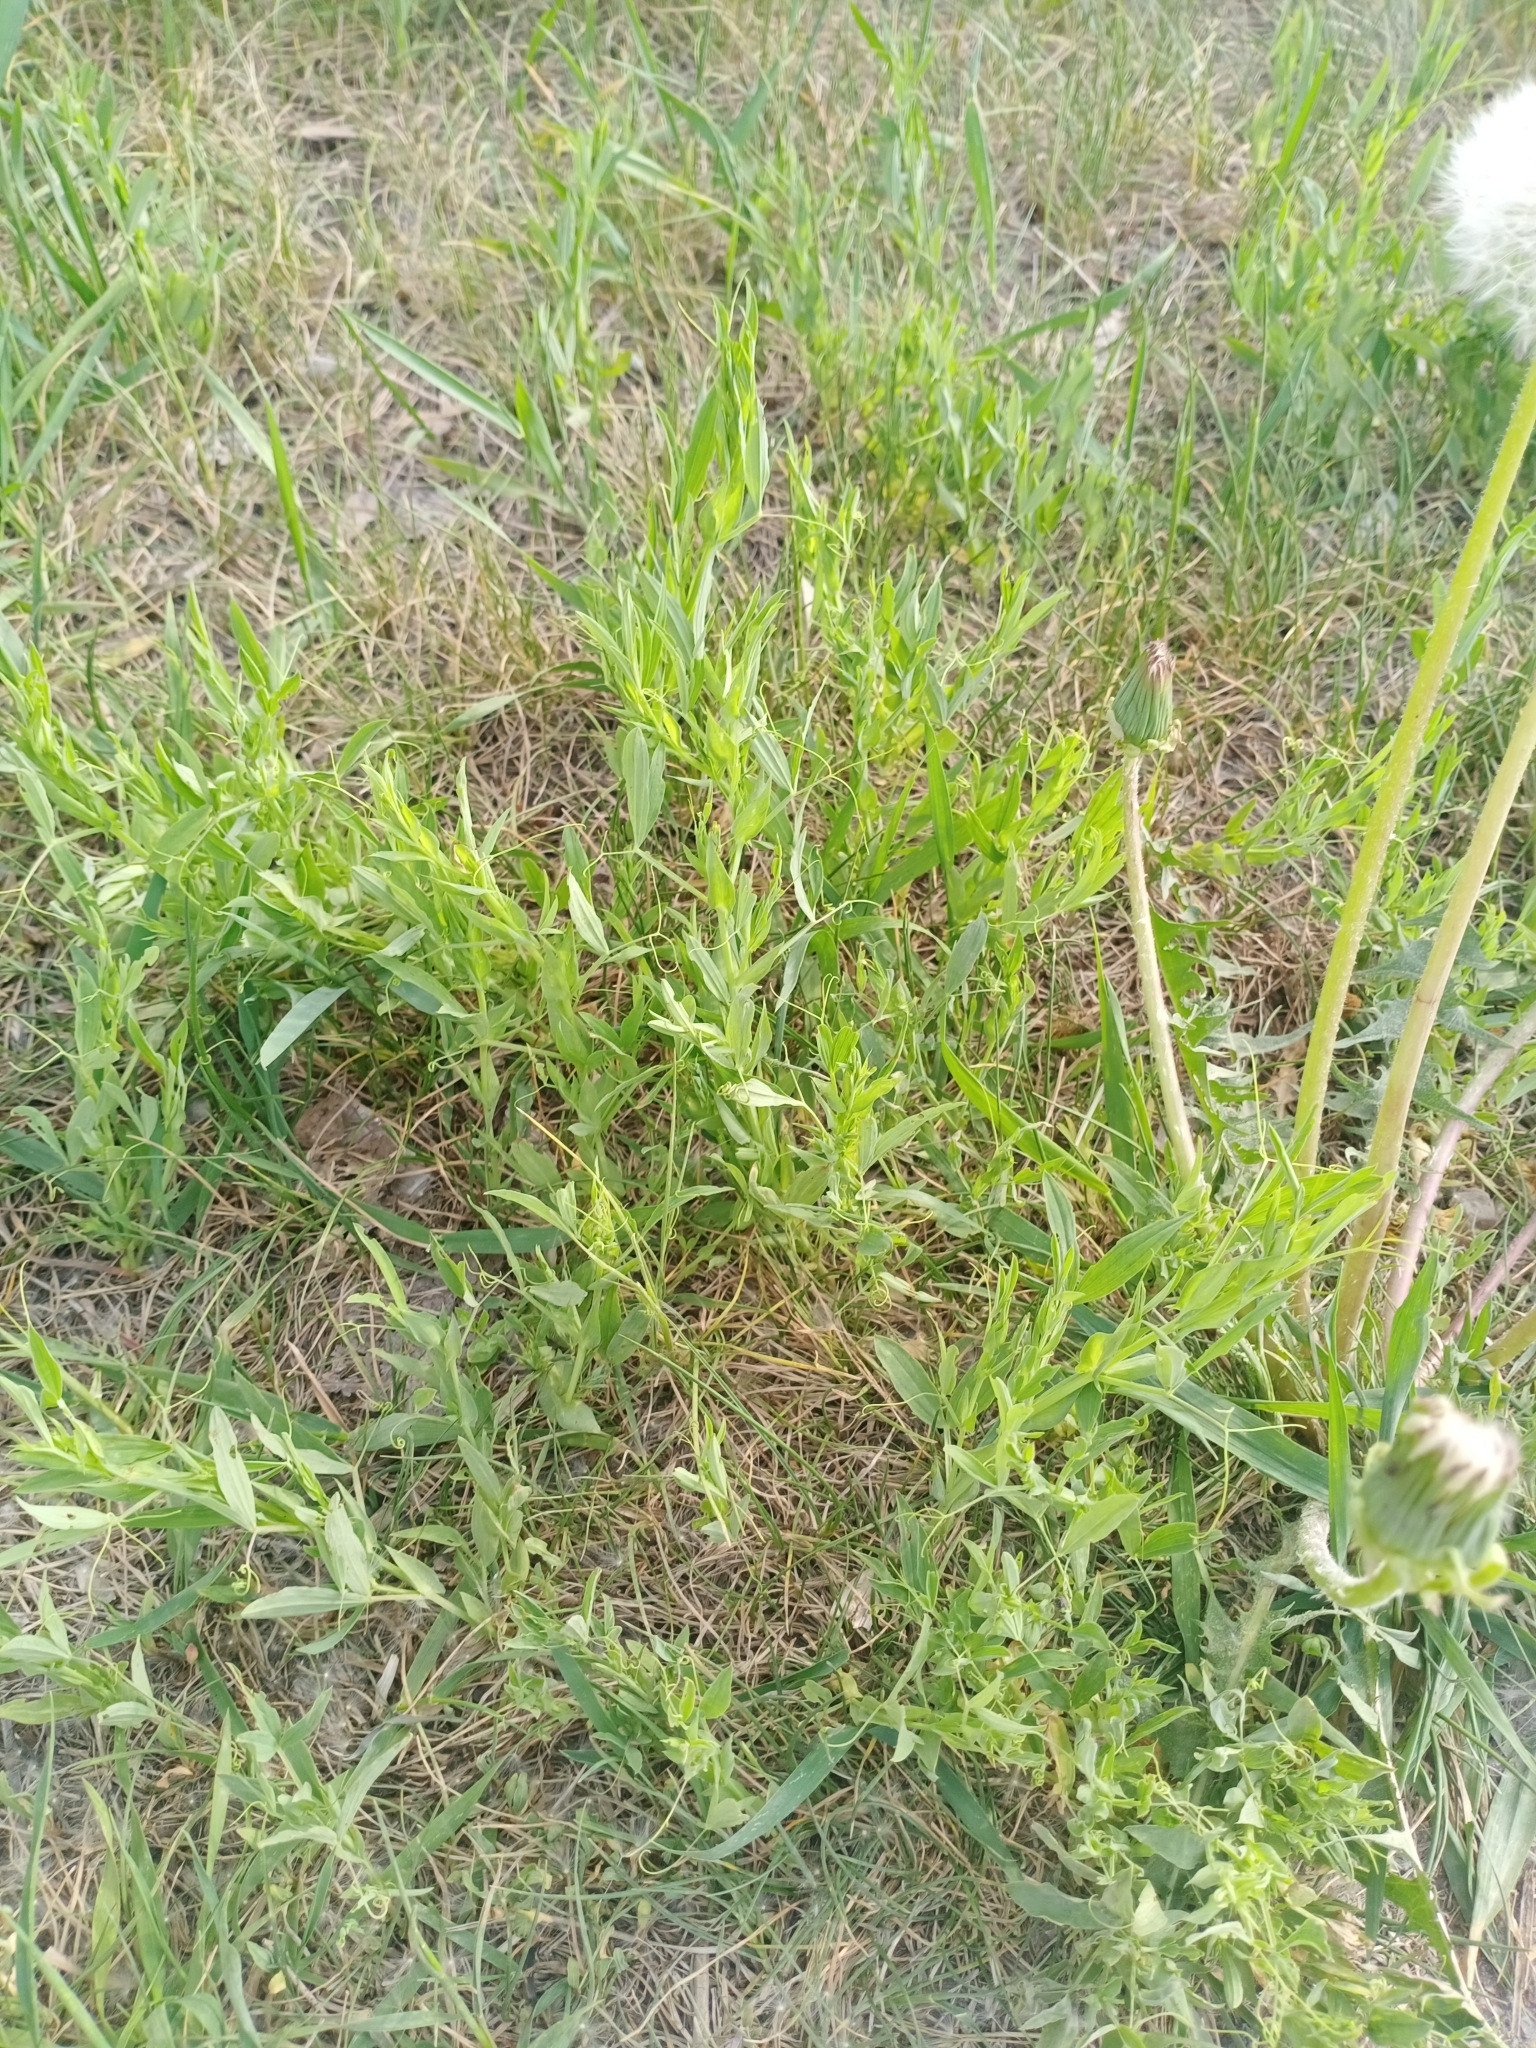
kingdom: Plantae
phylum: Tracheophyta
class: Magnoliopsida
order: Fabales
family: Fabaceae
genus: Lathyrus
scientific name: Lathyrus pratensis
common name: Meadow vetchling
